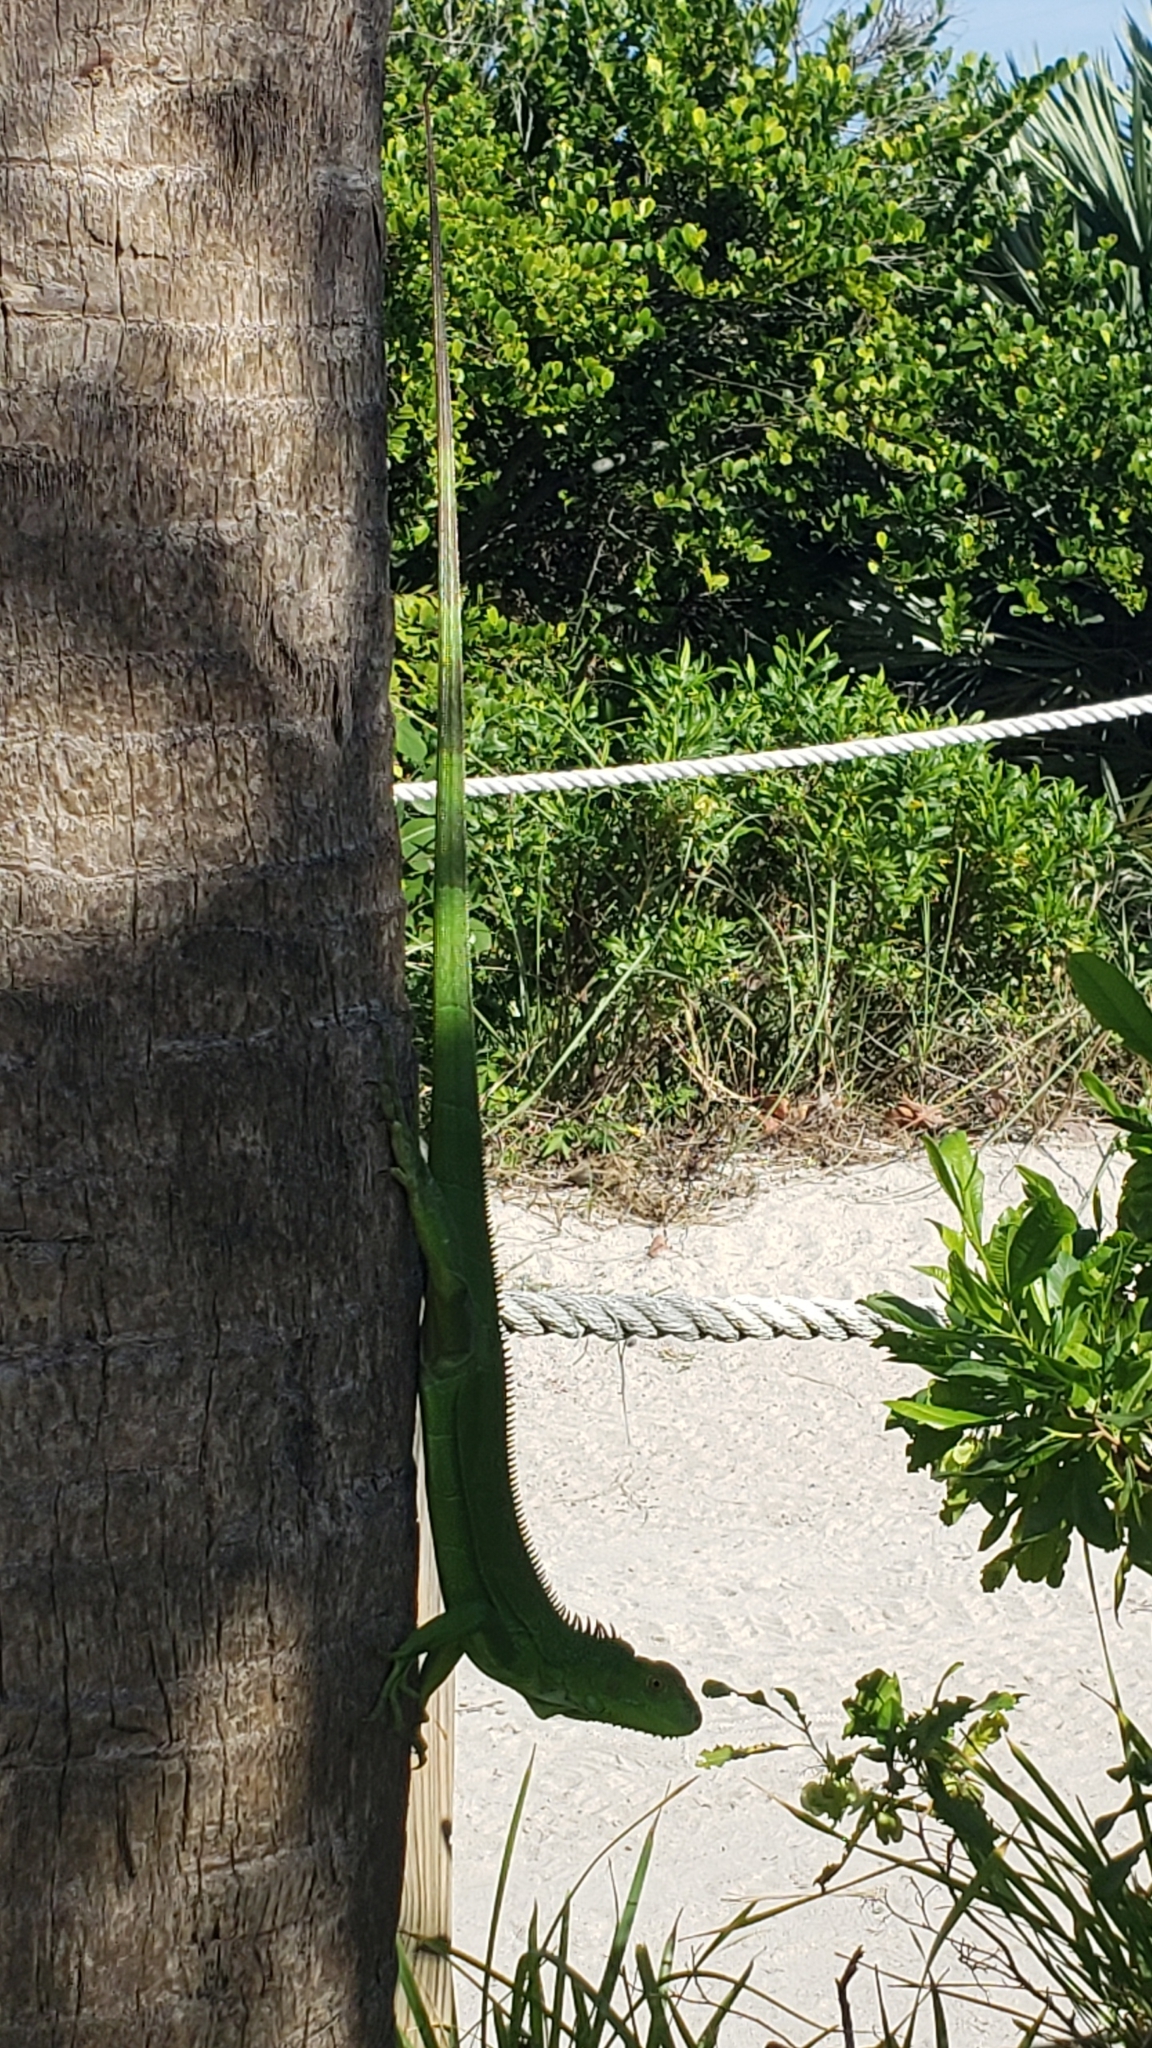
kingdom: Animalia
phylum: Chordata
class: Squamata
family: Iguanidae
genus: Iguana
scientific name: Iguana iguana
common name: Green iguana
